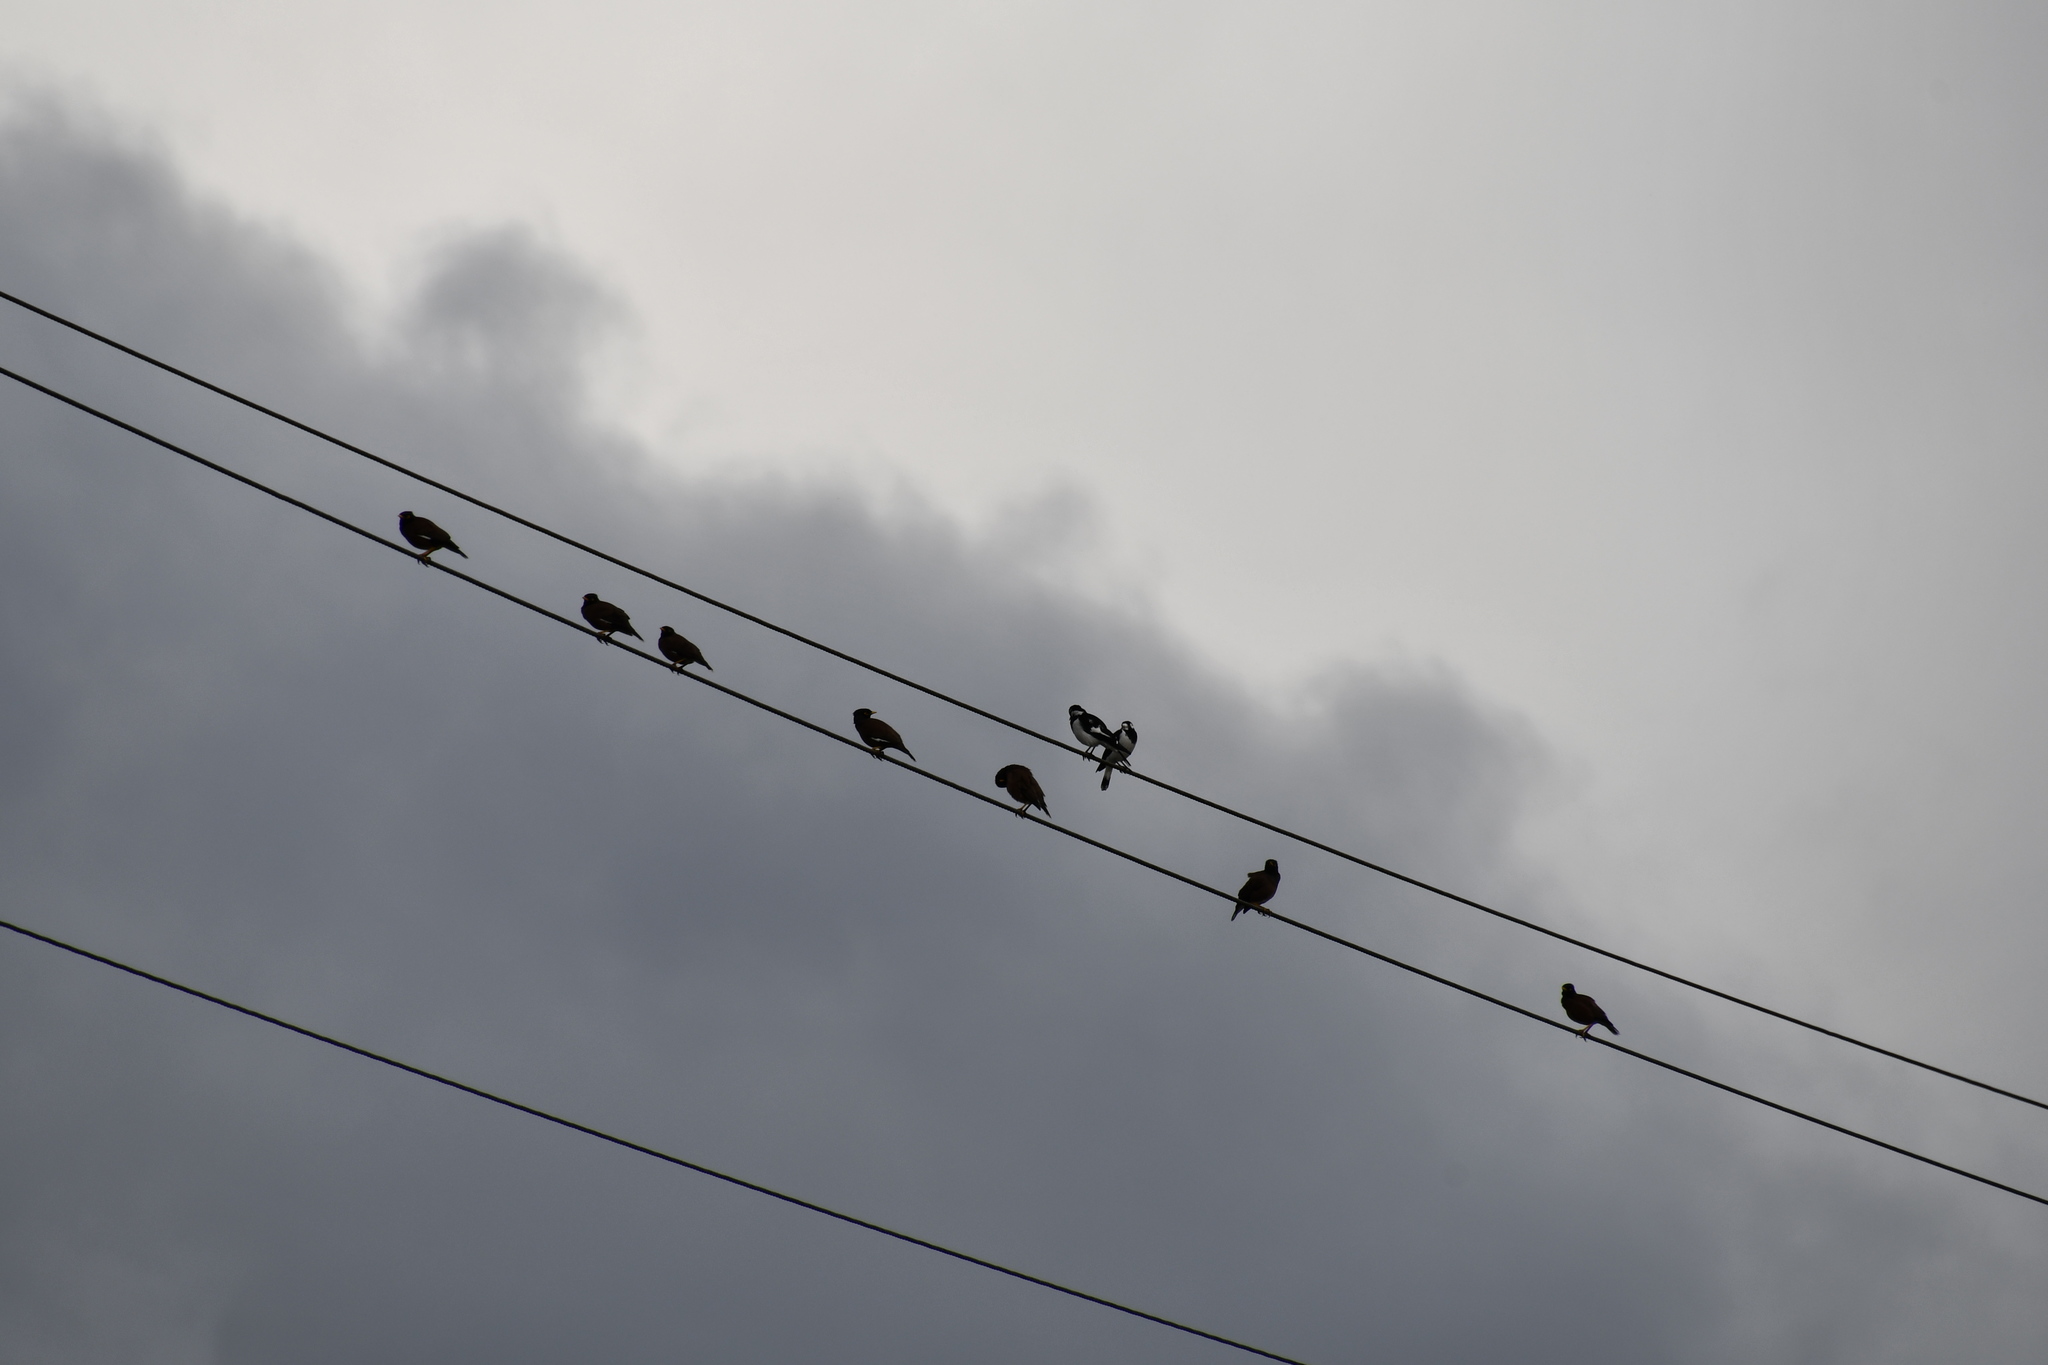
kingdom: Animalia
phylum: Chordata
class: Aves
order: Passeriformes
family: Monarchidae
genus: Grallina
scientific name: Grallina cyanoleuca
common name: Magpie-lark
